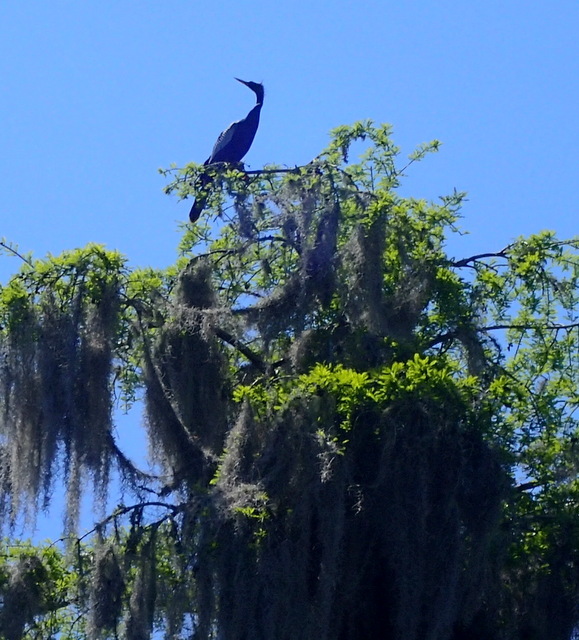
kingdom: Animalia
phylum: Chordata
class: Aves
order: Suliformes
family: Anhingidae
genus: Anhinga
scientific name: Anhinga anhinga
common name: Anhinga
